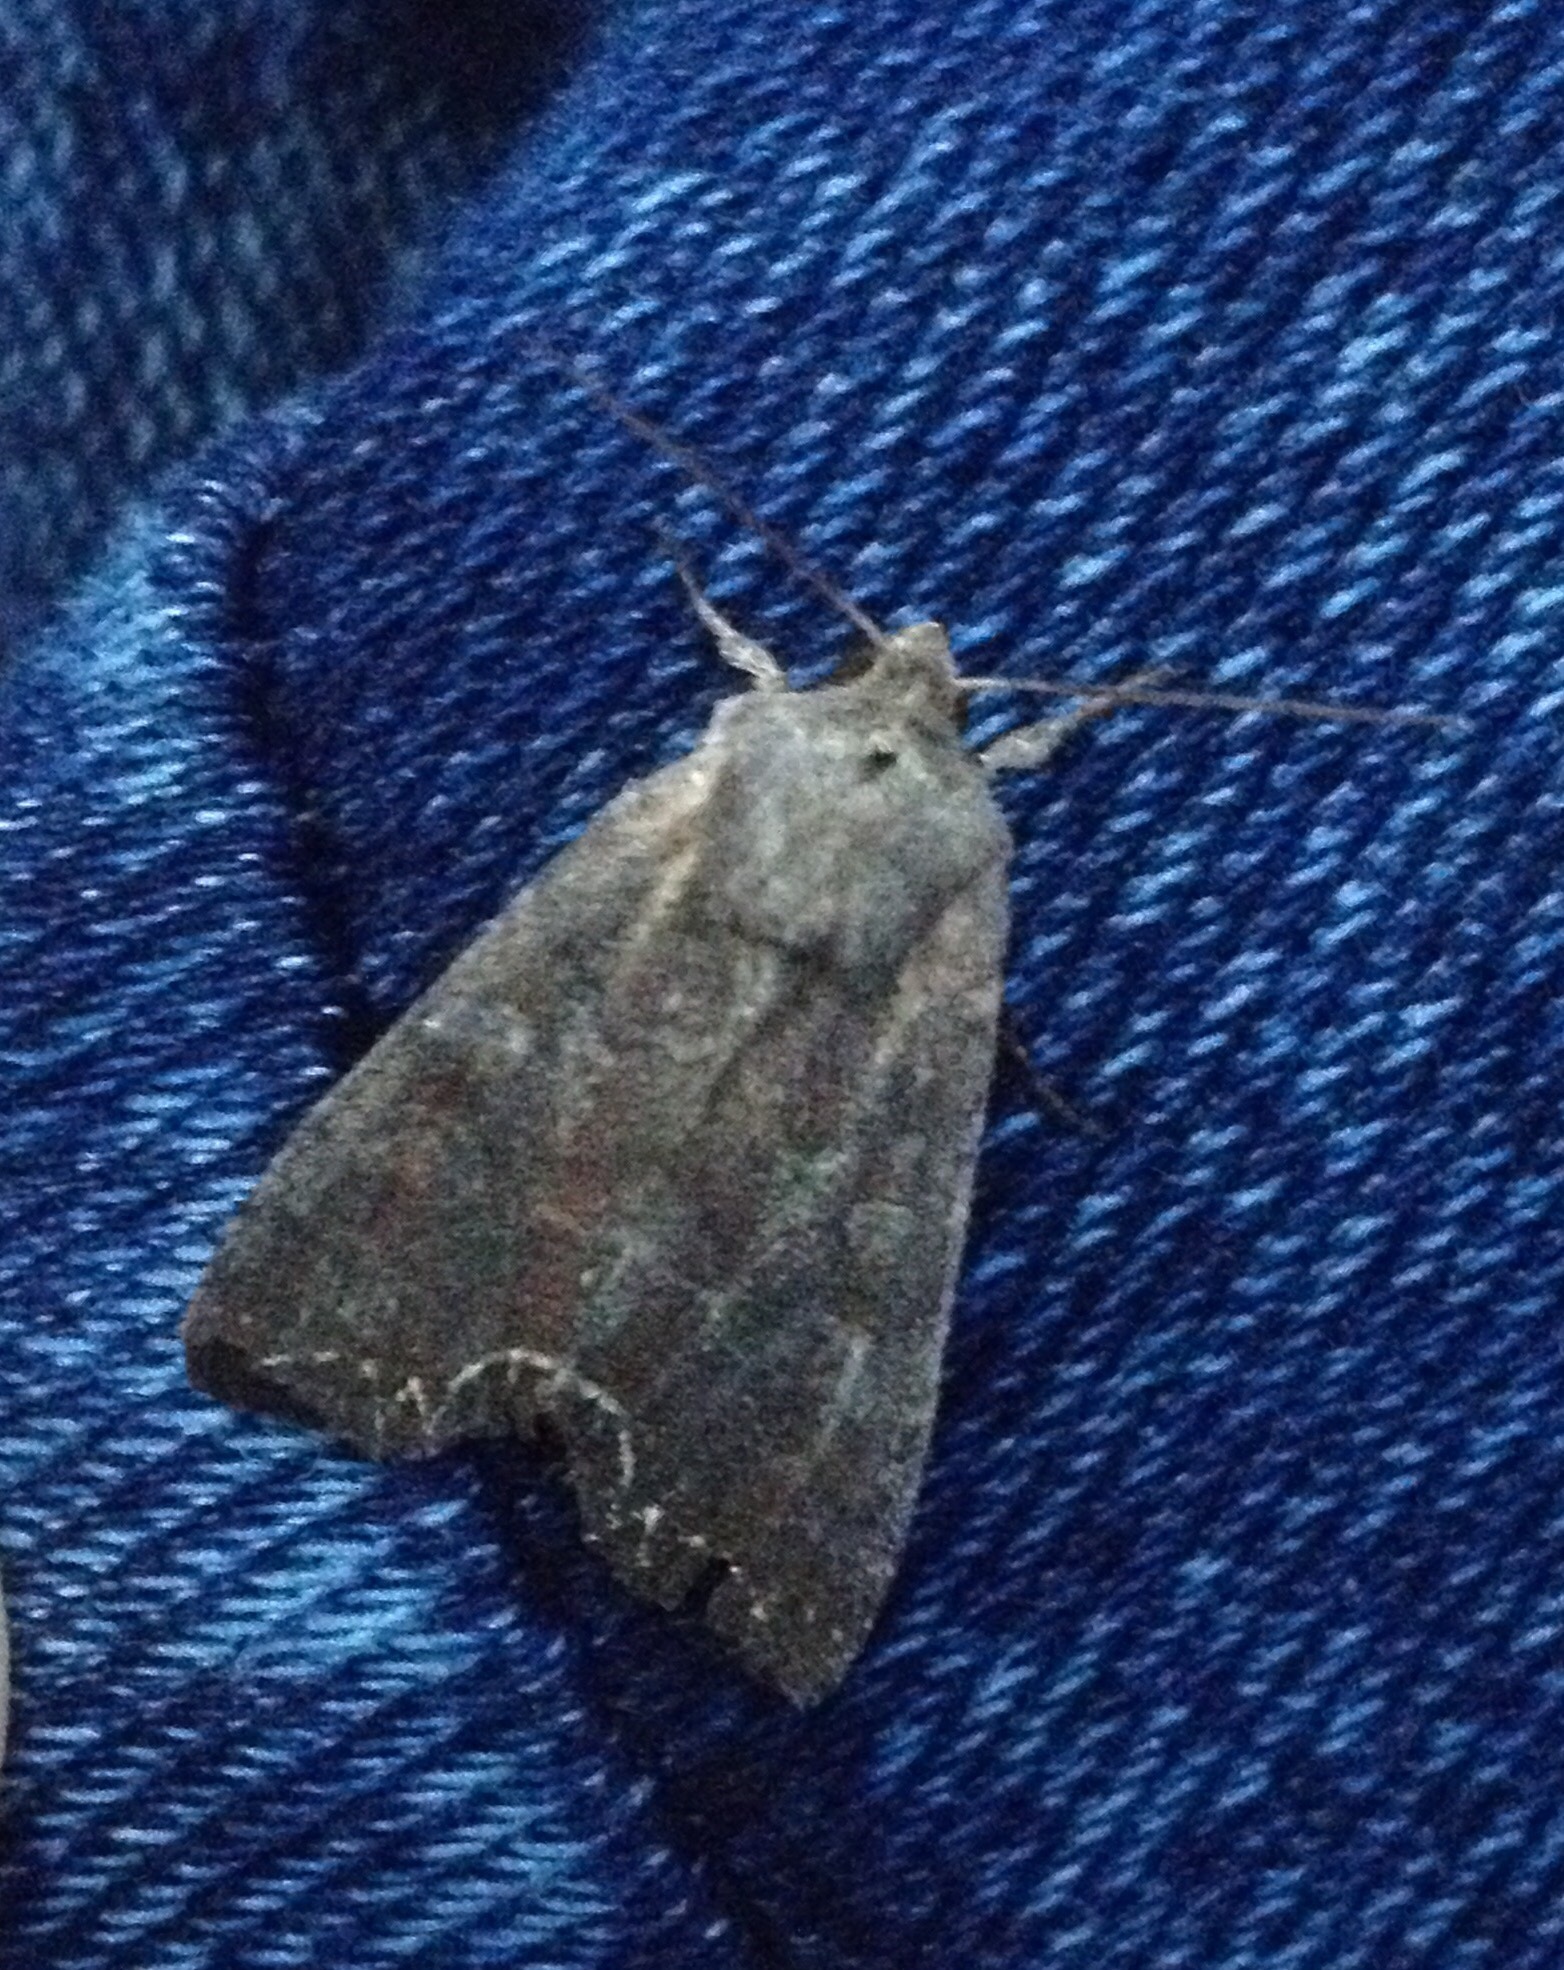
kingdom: Animalia
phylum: Arthropoda
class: Insecta
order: Lepidoptera
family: Noctuidae
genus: Lacanobia
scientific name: Lacanobia suasa
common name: Dog's tooth
